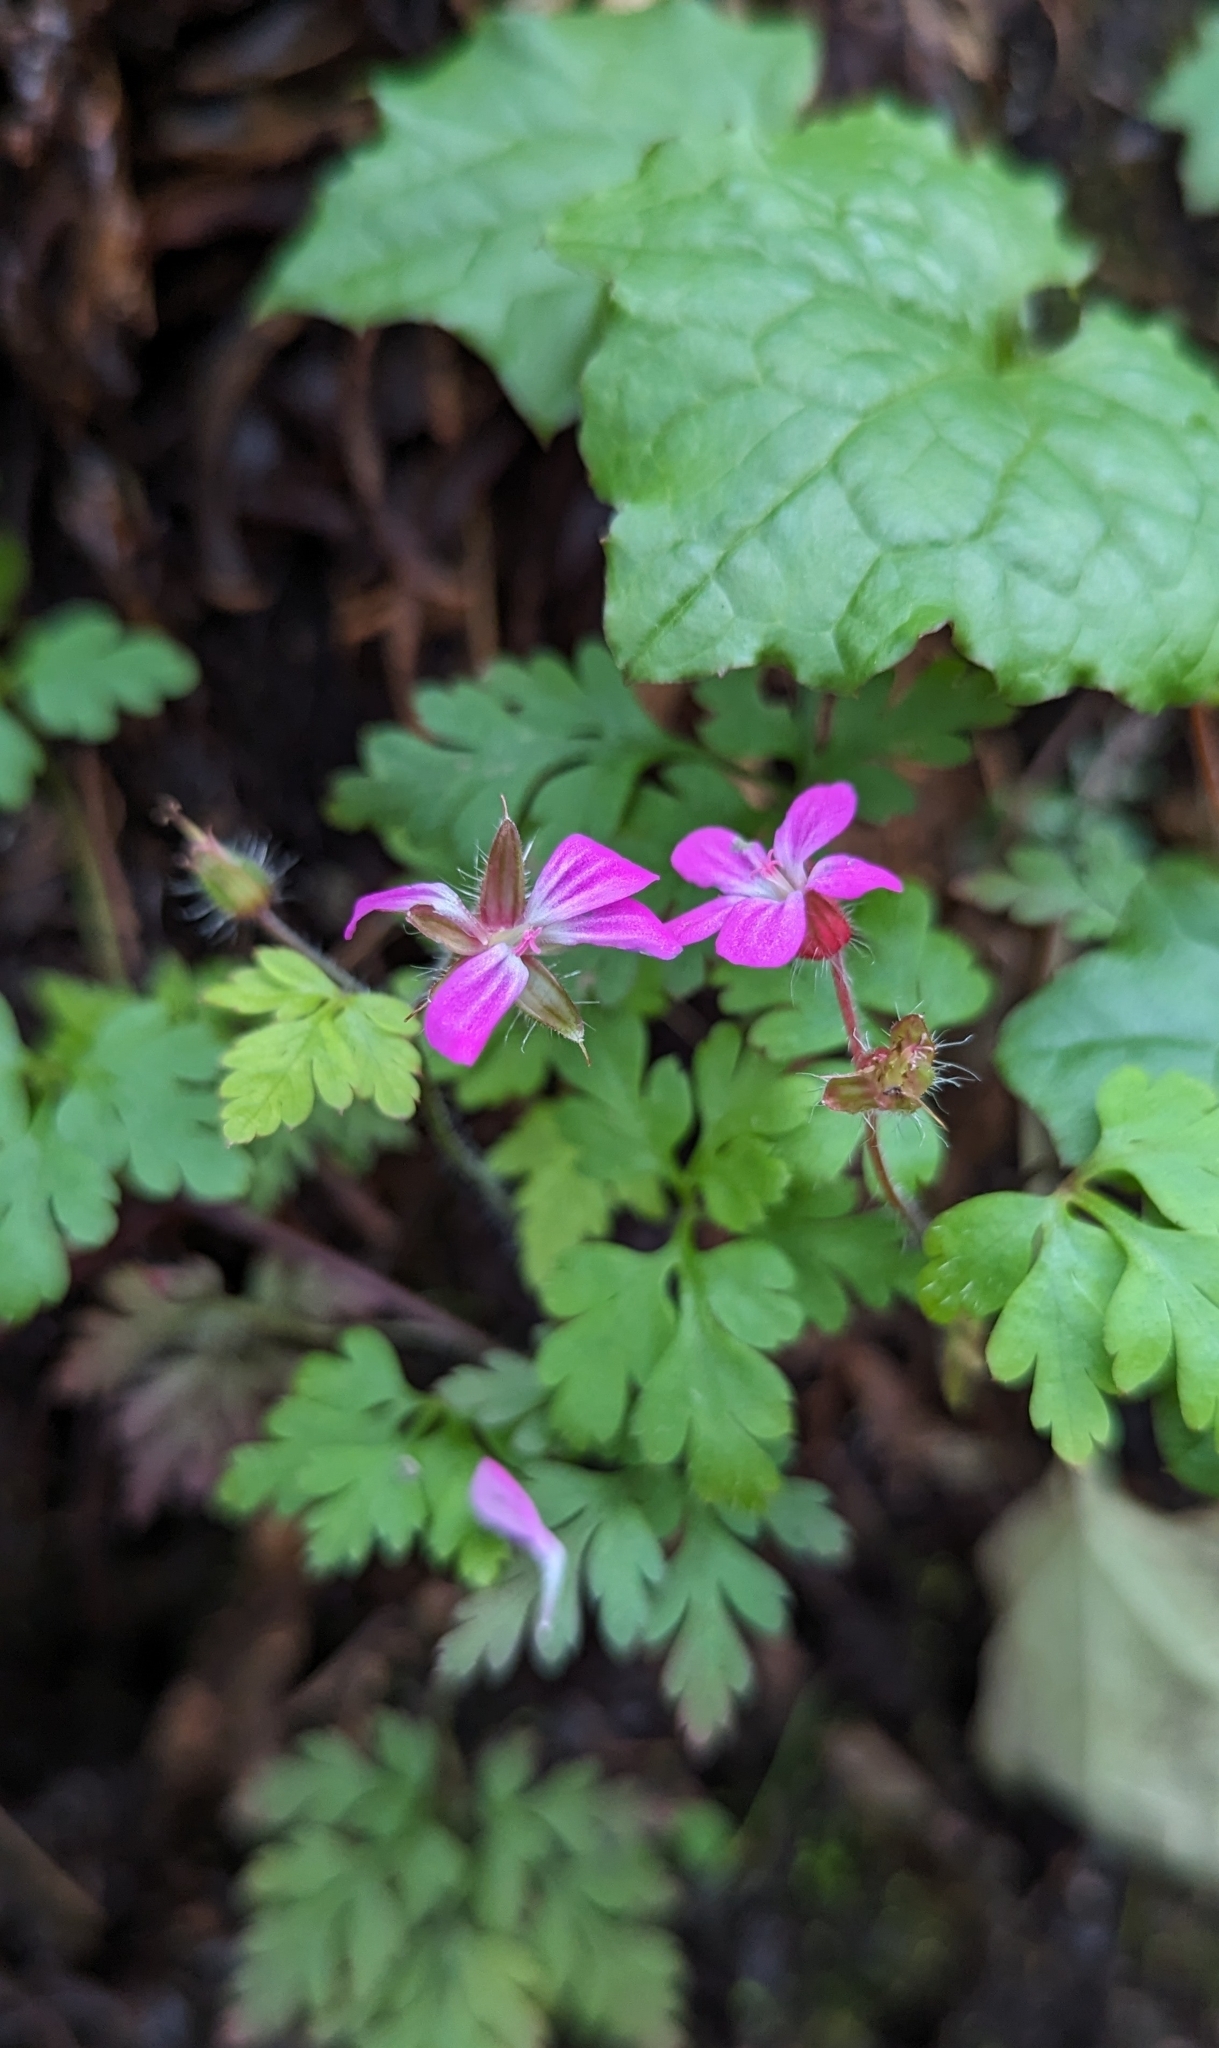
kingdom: Plantae
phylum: Tracheophyta
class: Magnoliopsida
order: Geraniales
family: Geraniaceae
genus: Geranium
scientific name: Geranium robertianum
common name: Herb-robert
